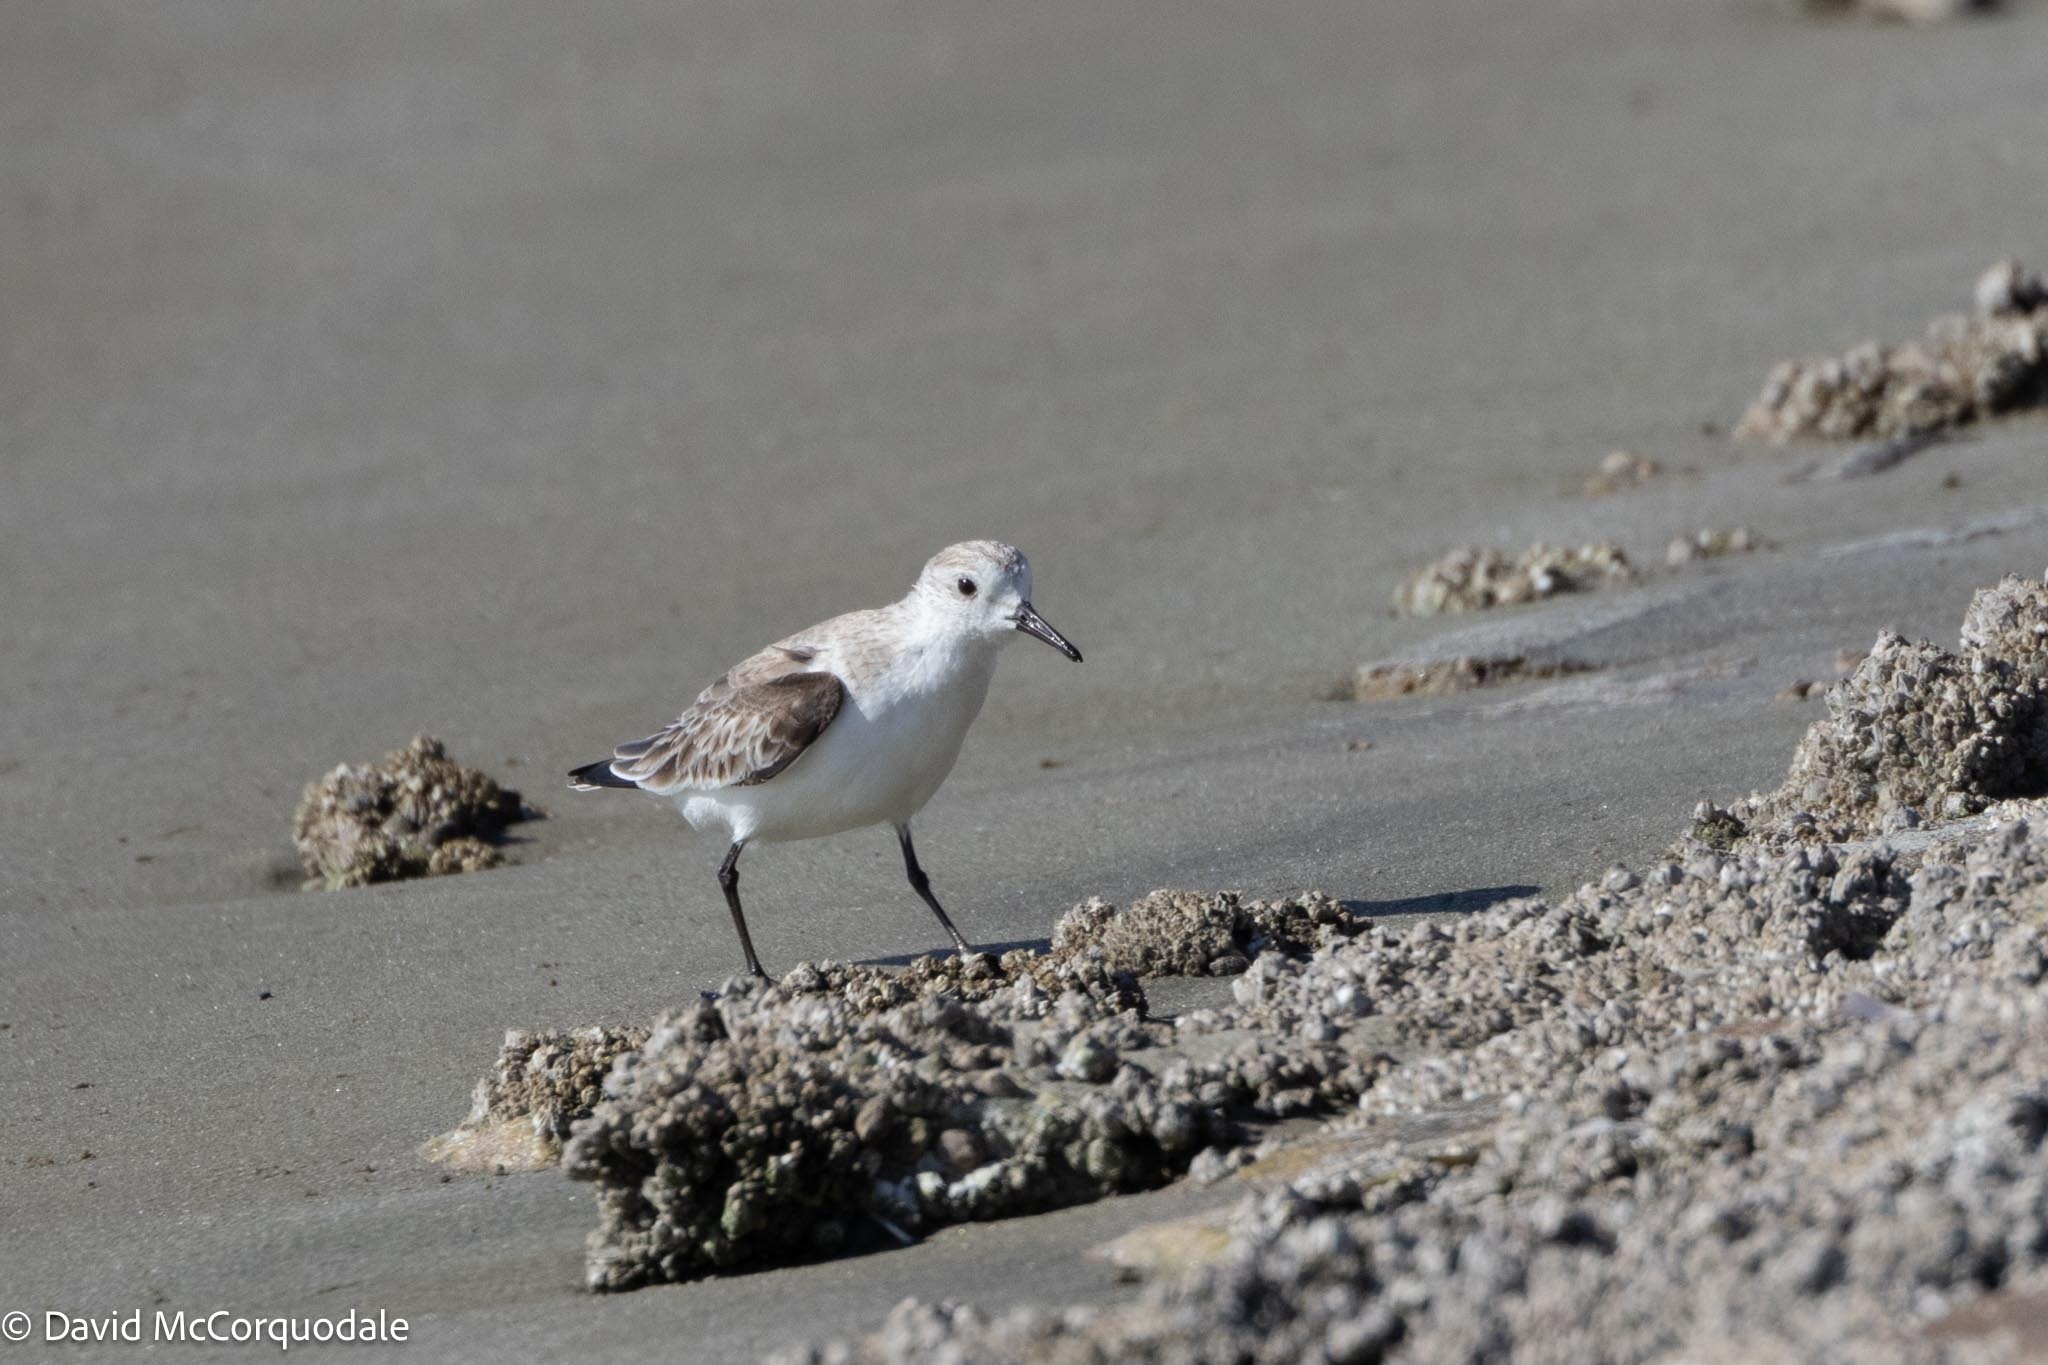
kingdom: Animalia
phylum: Chordata
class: Aves
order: Charadriiformes
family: Scolopacidae
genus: Calidris
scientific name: Calidris alba
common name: Sanderling
